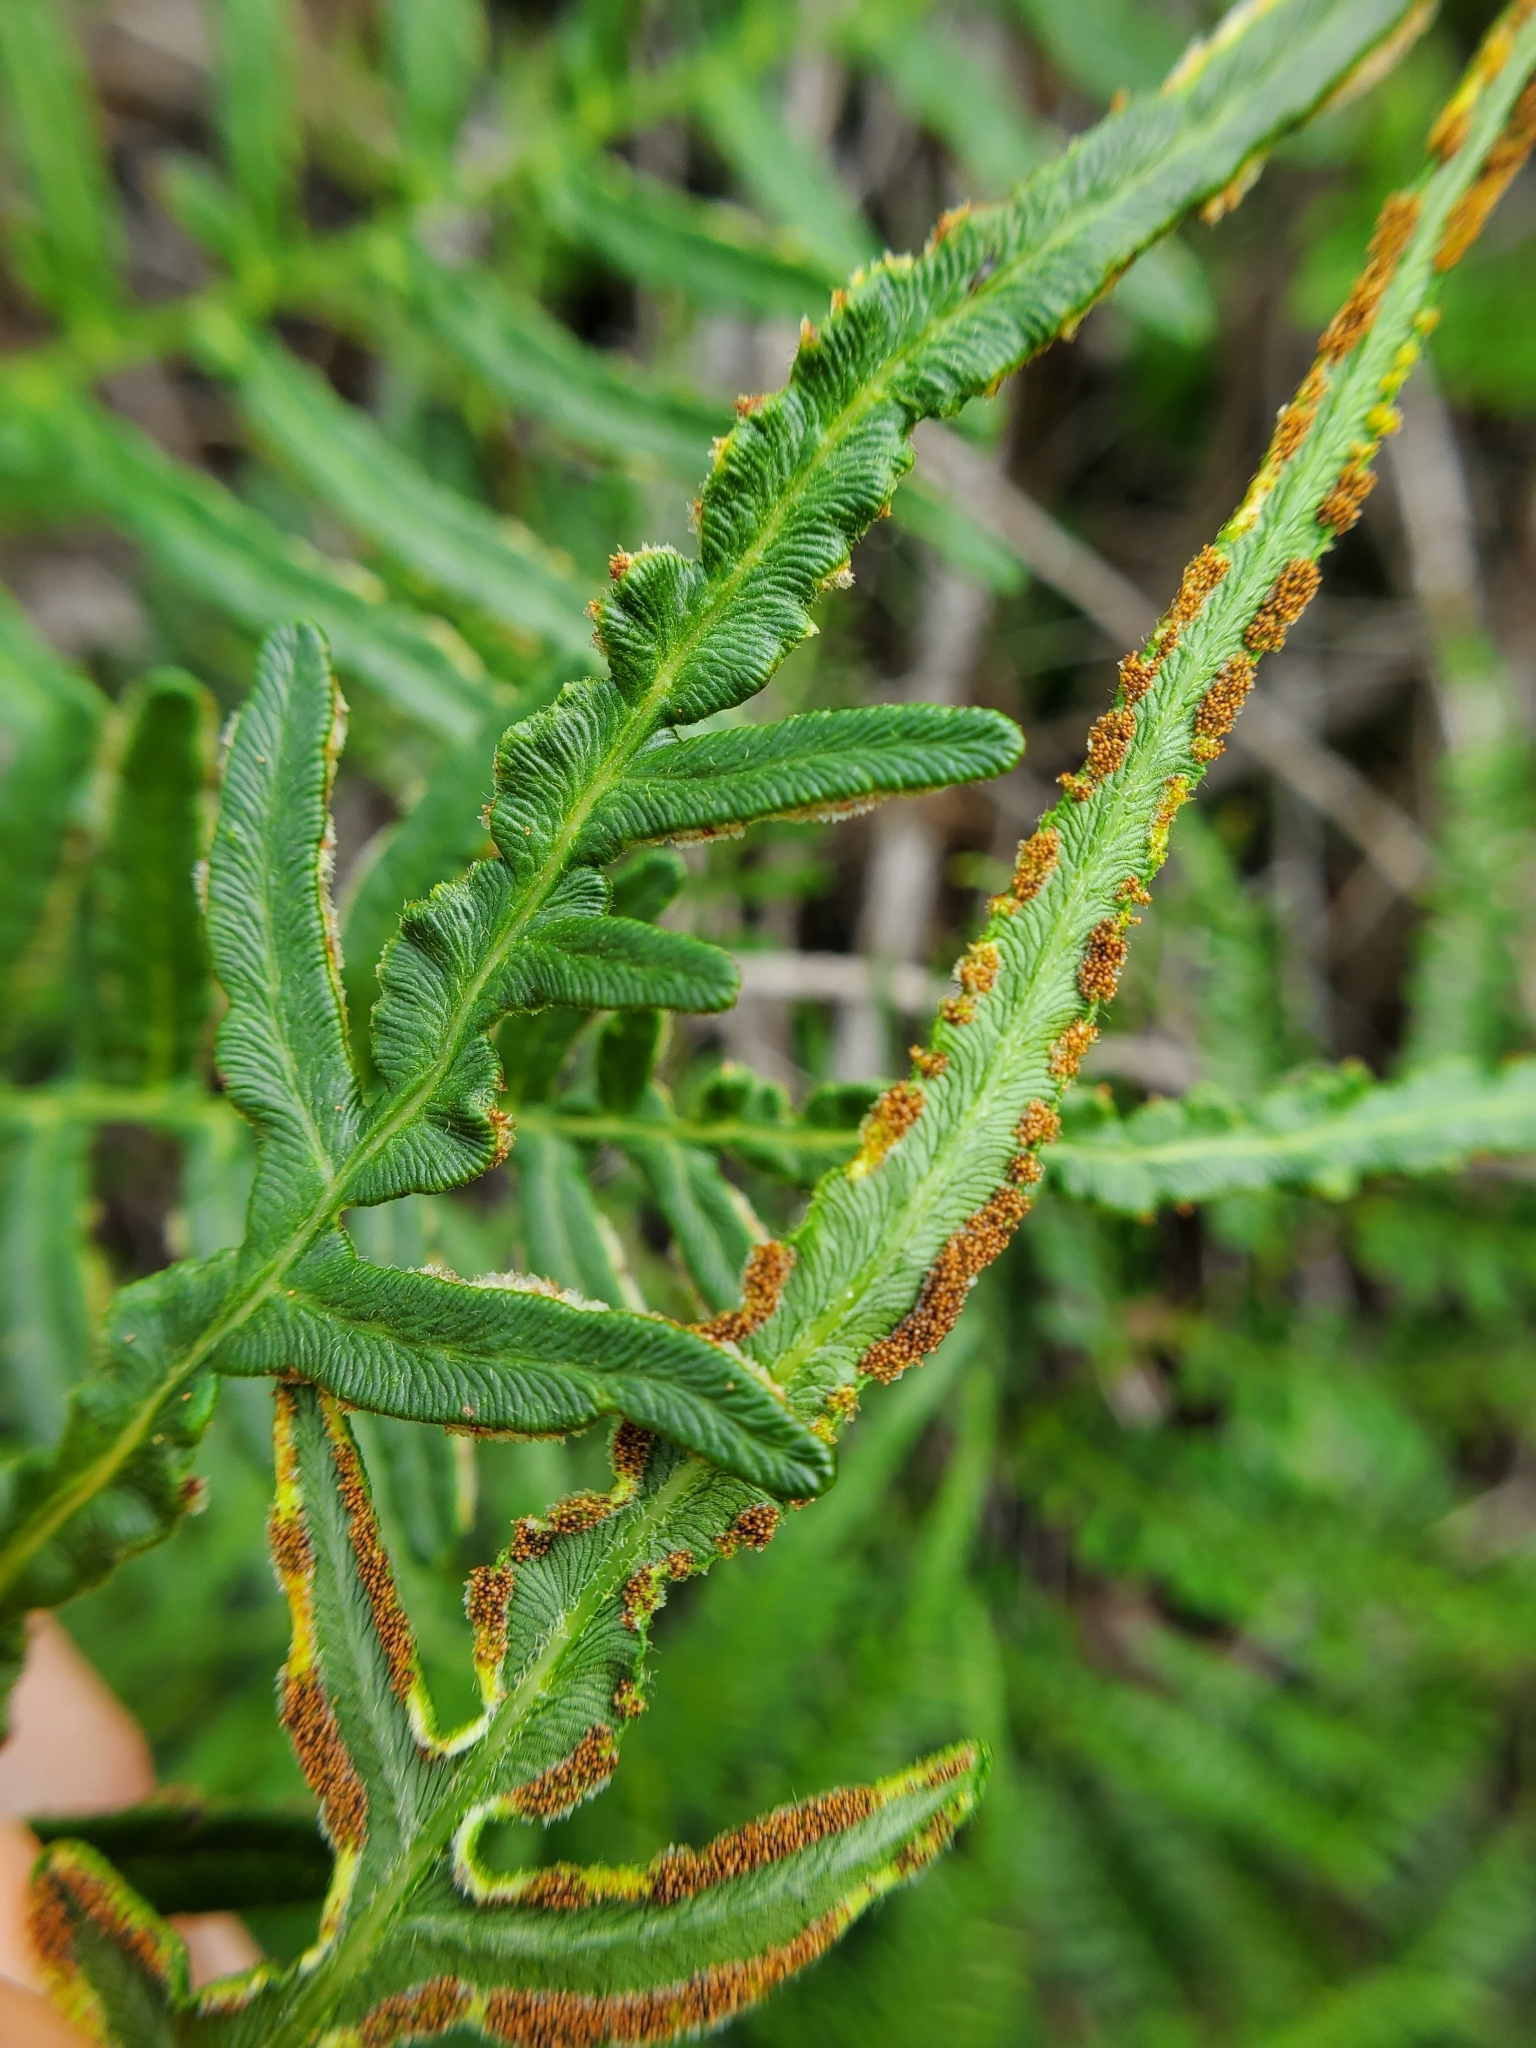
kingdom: Plantae
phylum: Tracheophyta
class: Polypodiopsida
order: Polypodiales
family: Dennstaedtiaceae
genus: Pteridium
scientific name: Pteridium aquilinum
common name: Bracken
